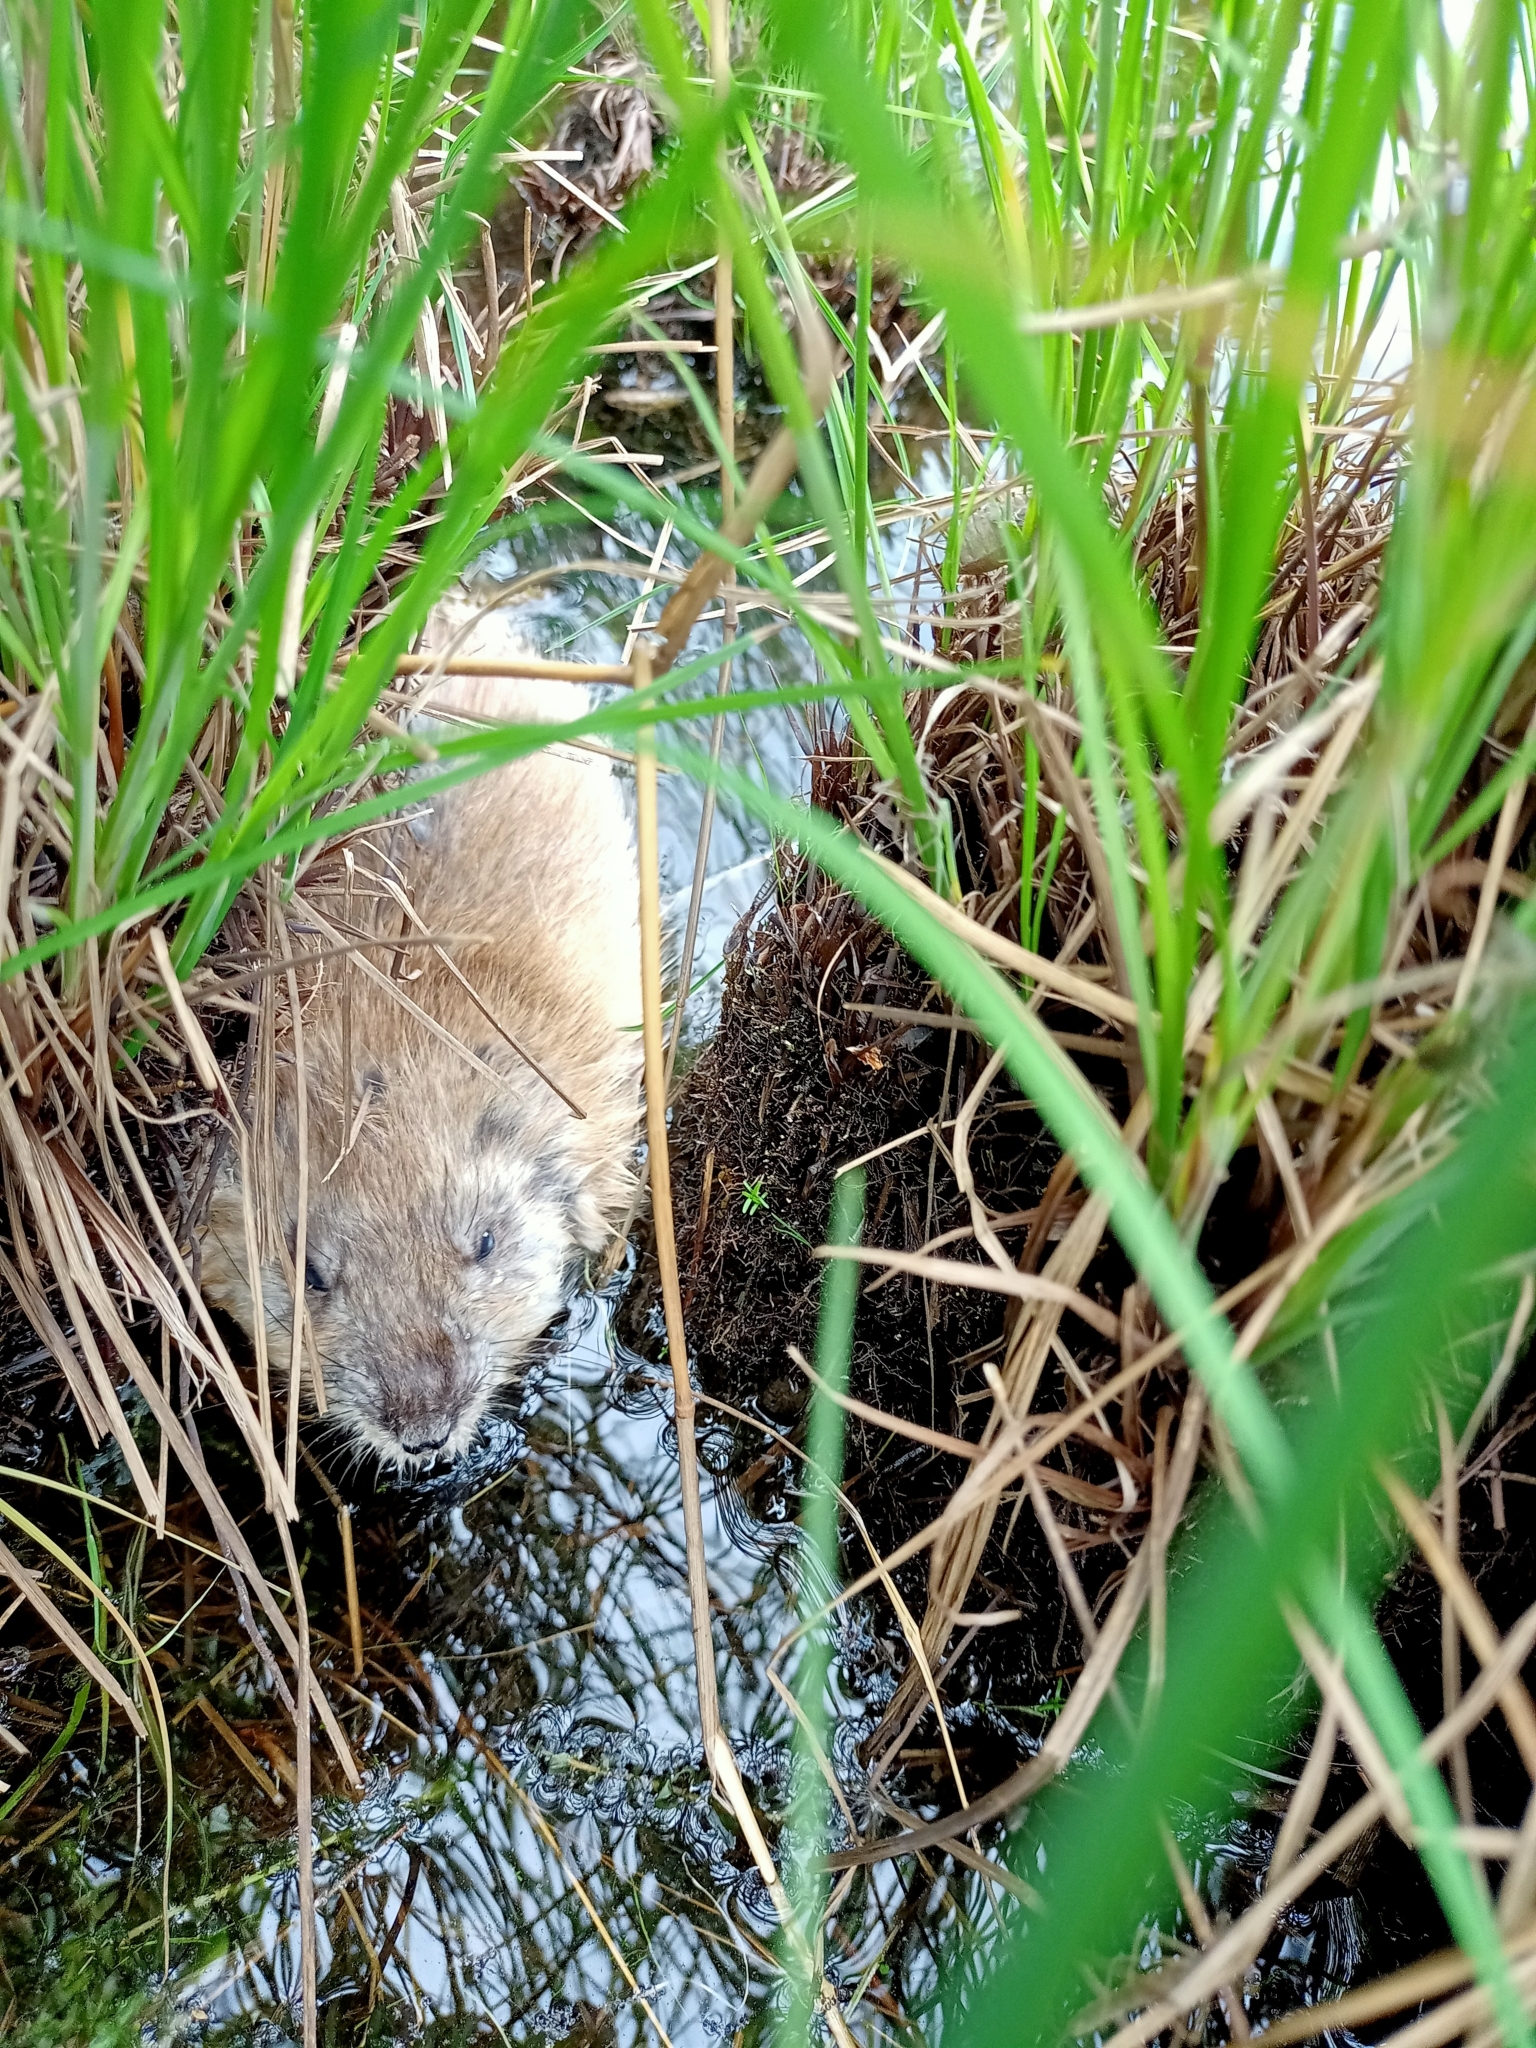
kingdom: Animalia
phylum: Chordata
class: Mammalia
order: Rodentia
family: Cricetidae
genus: Ondatra
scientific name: Ondatra zibethicus
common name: Muskrat
